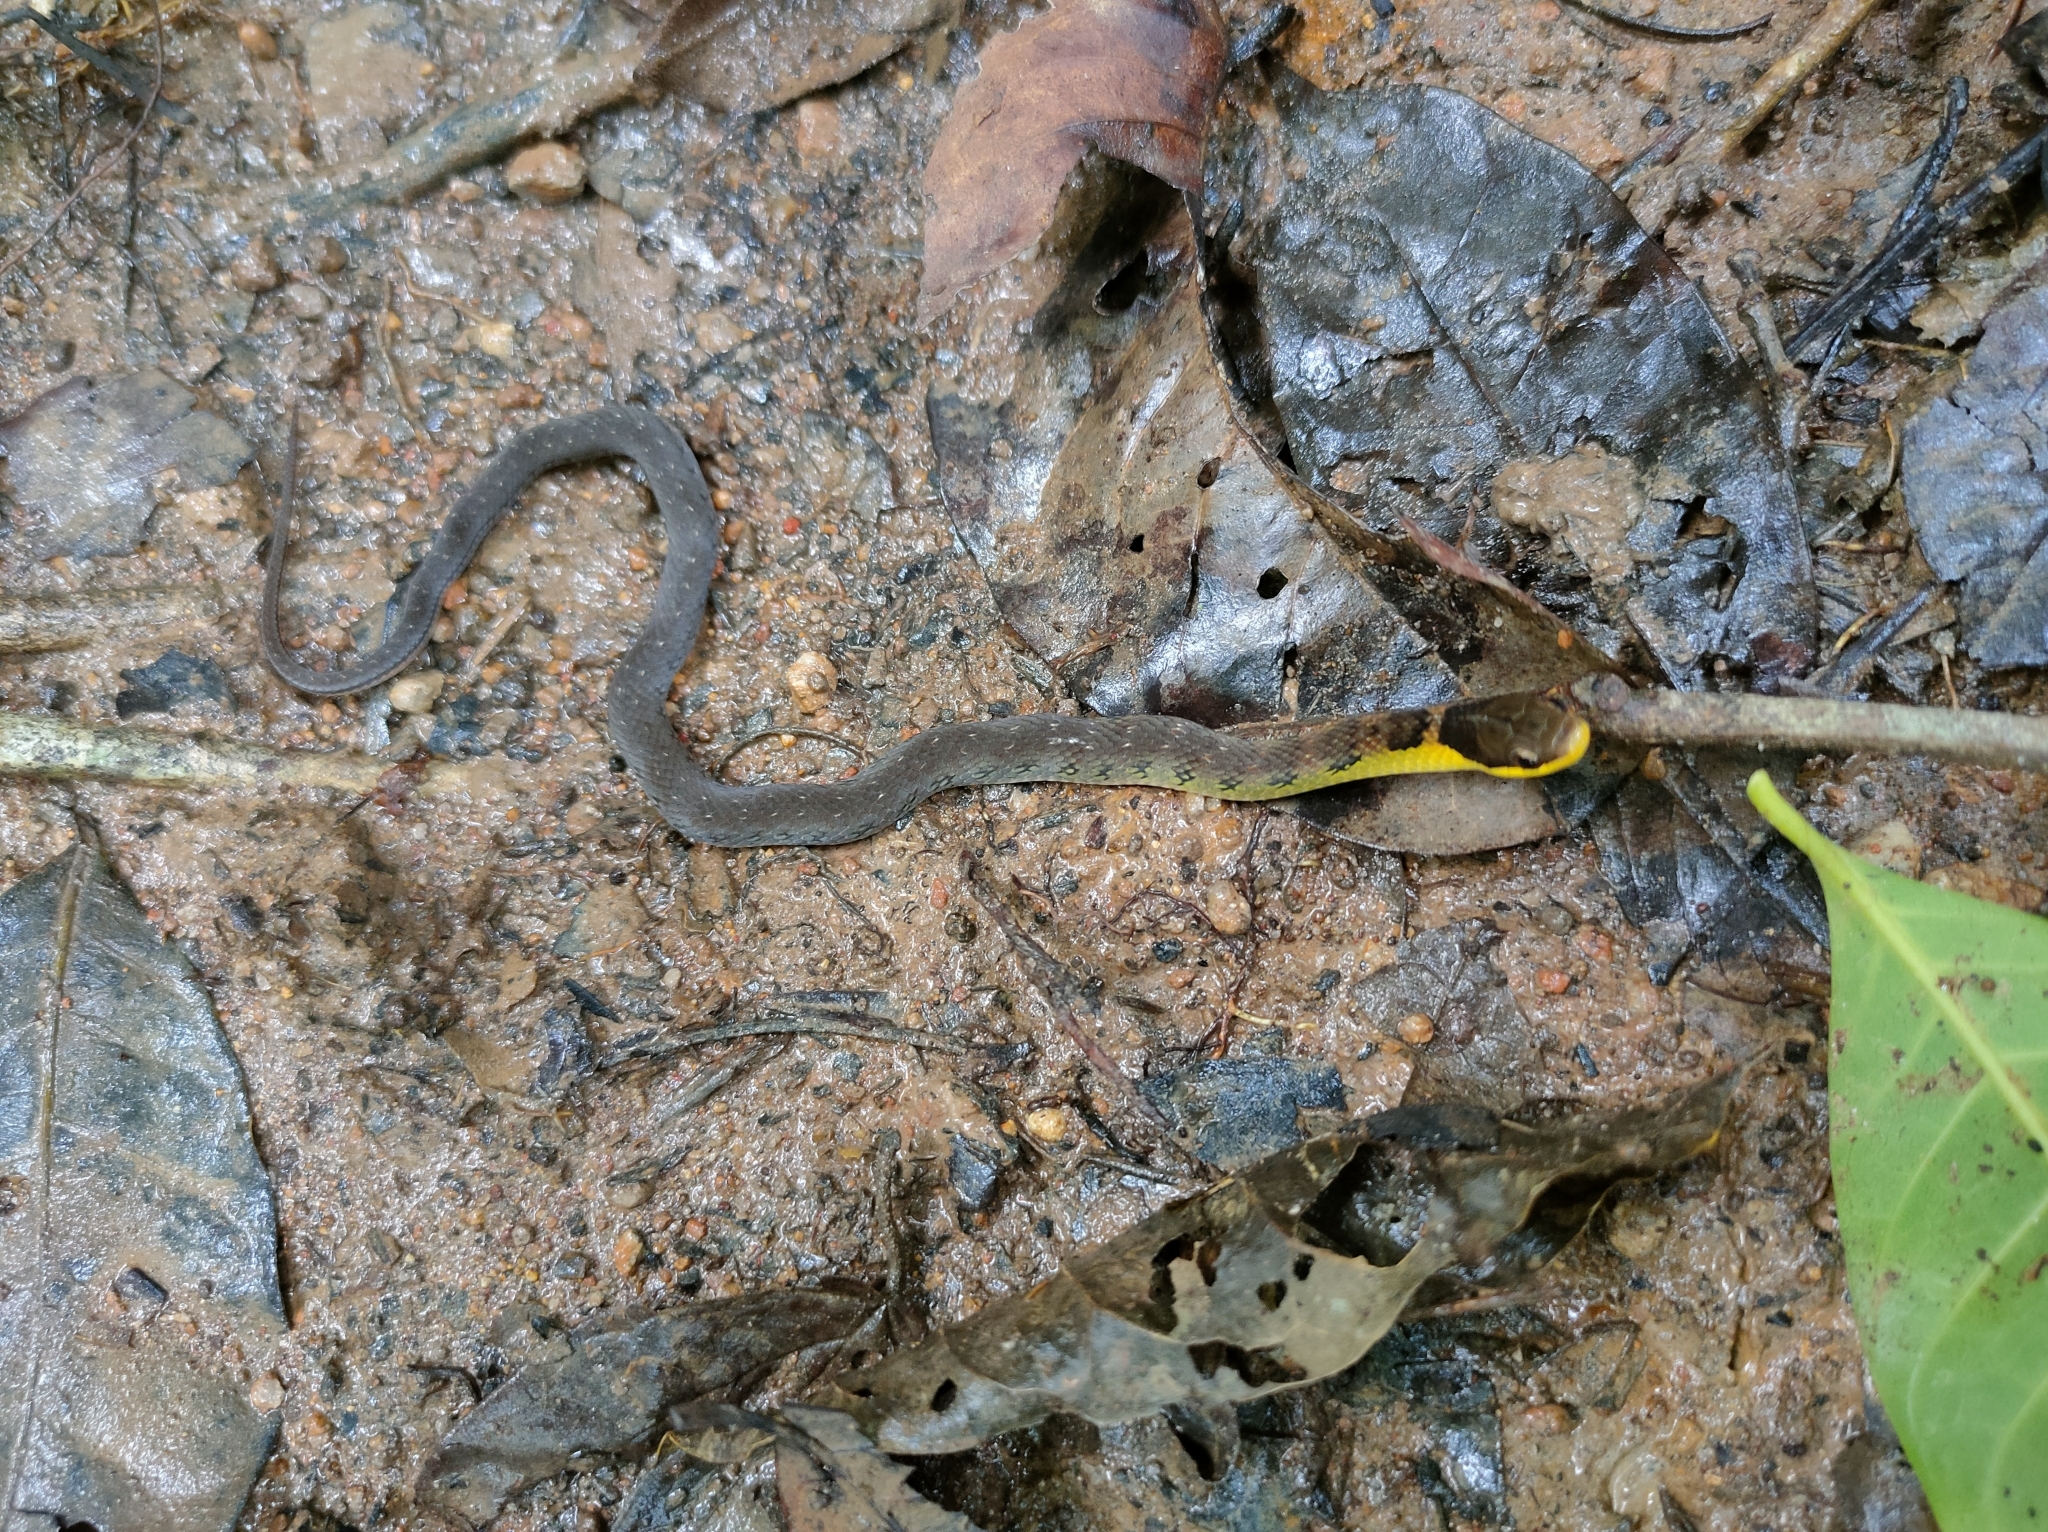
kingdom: Animalia
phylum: Chordata
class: Squamata
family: Colubridae
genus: Erythrolamprus
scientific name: Erythrolamprus epinephalus
